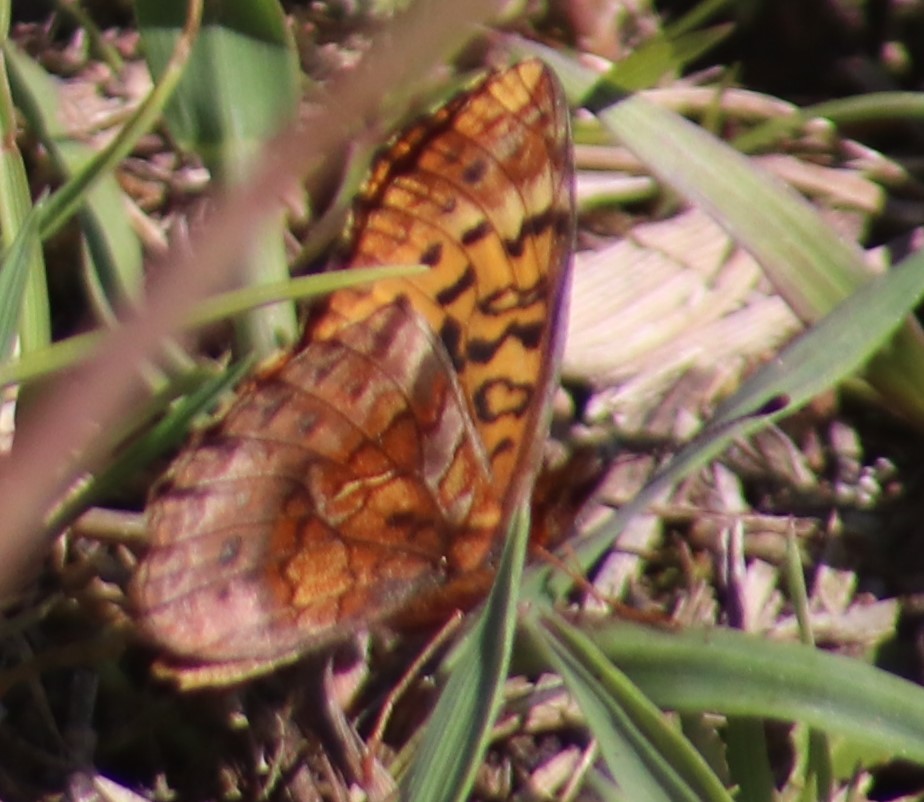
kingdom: Animalia
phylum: Arthropoda
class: Insecta
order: Lepidoptera
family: Nymphalidae
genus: Clossiana
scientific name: Clossiana toddi
